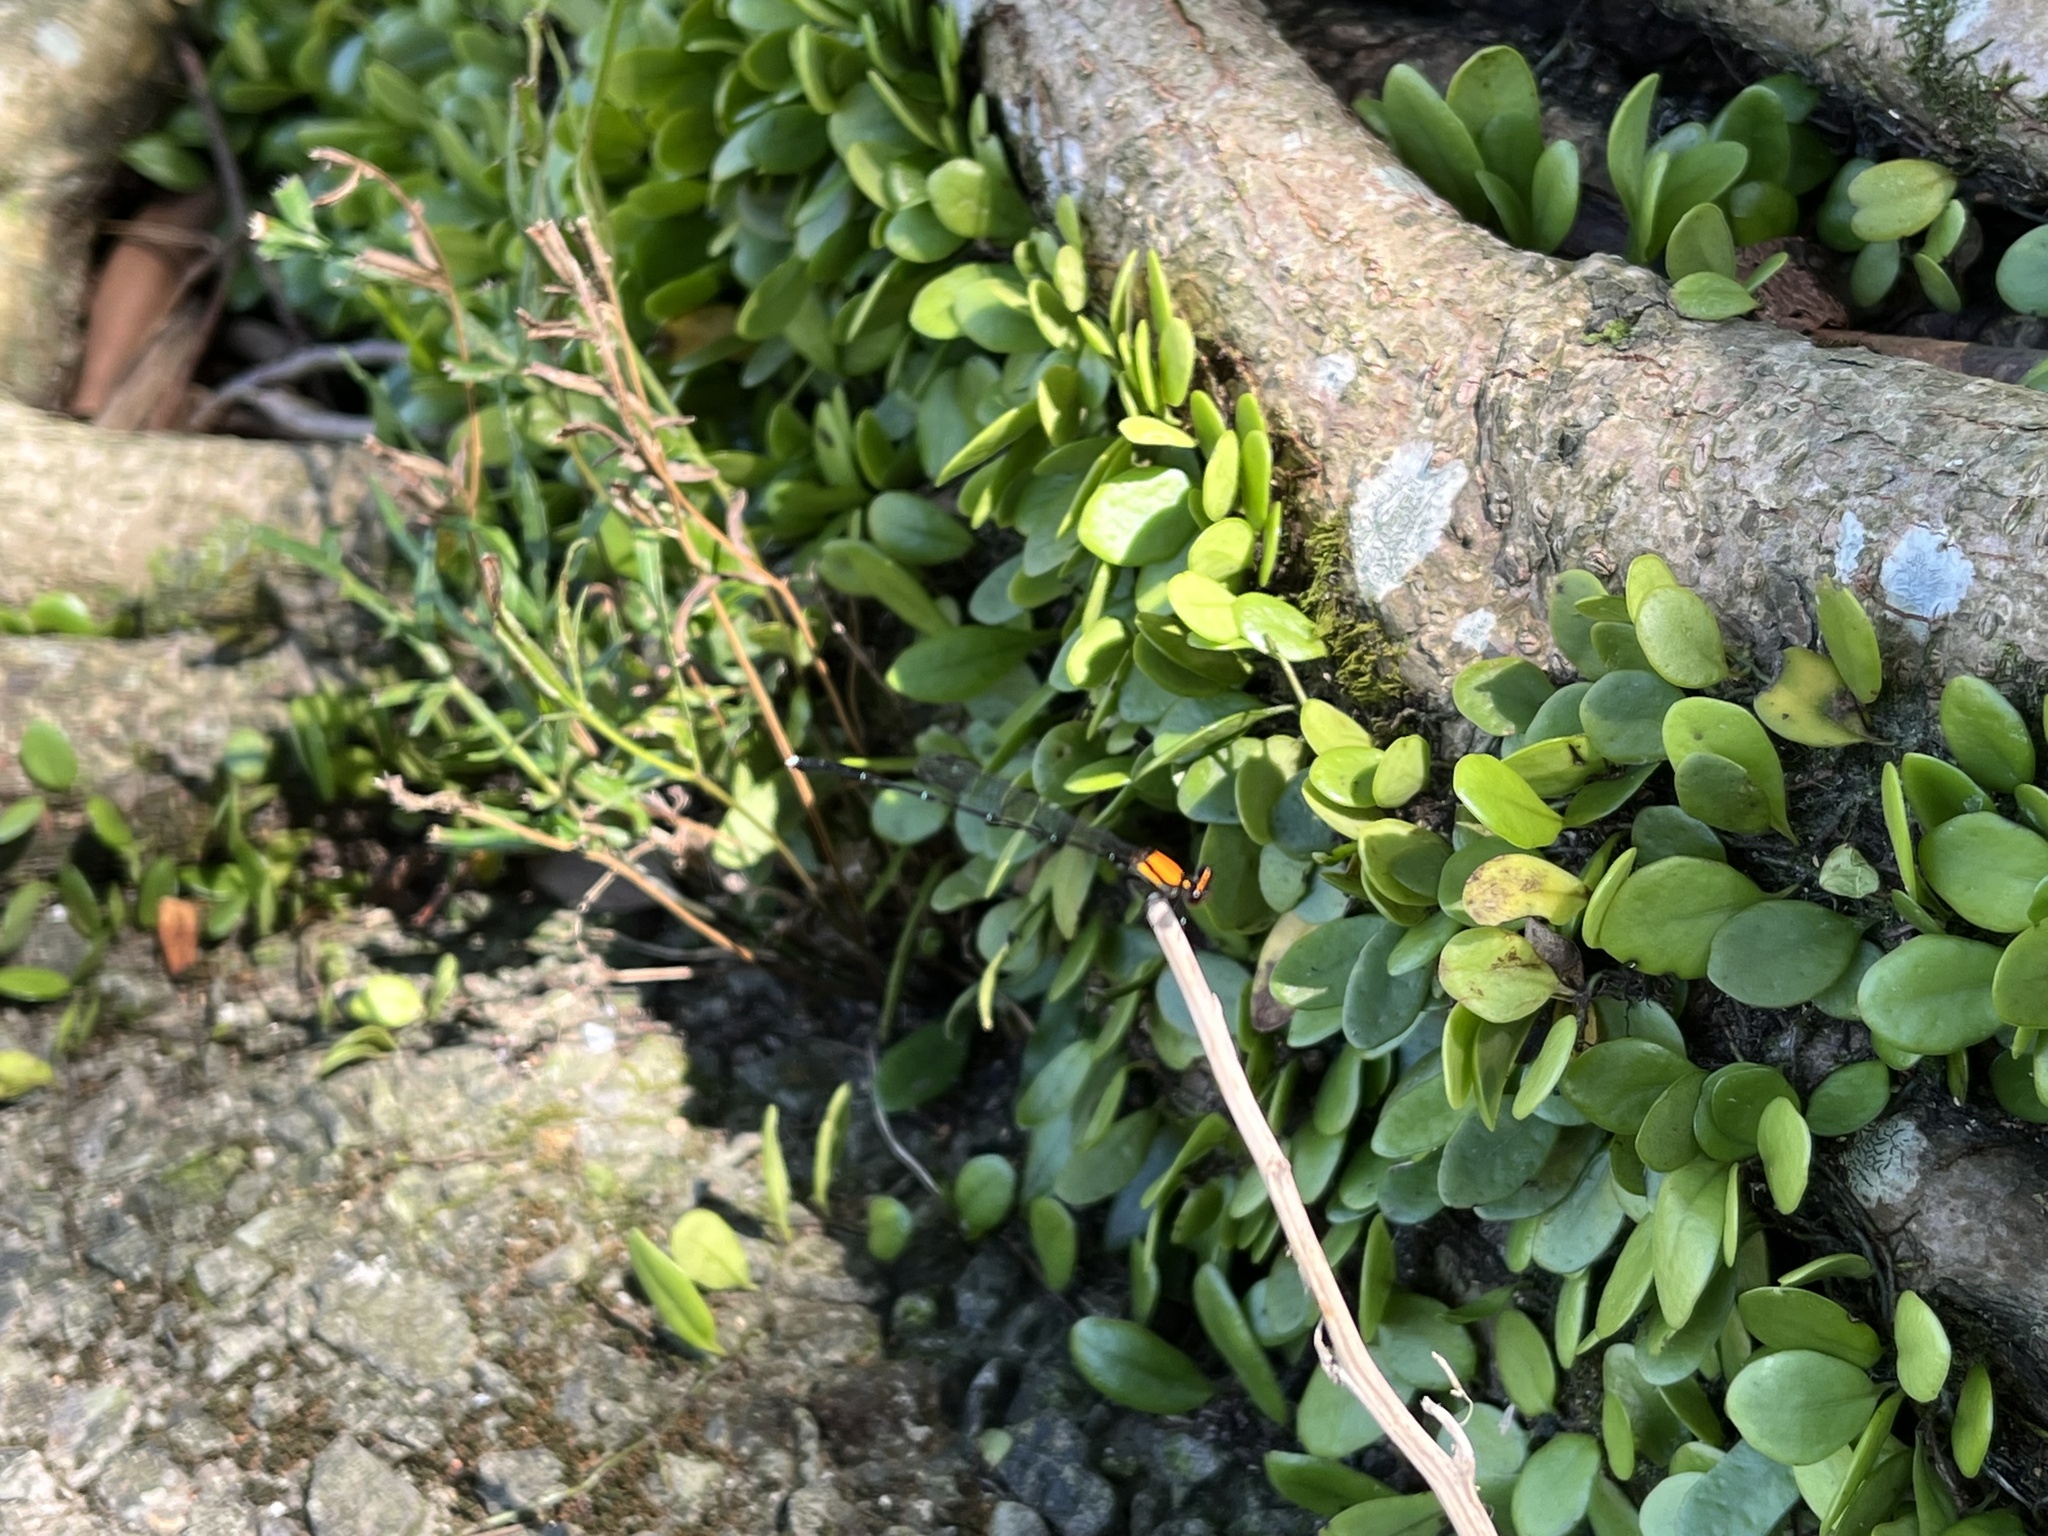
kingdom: Animalia
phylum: Arthropoda
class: Insecta
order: Odonata
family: Platycnemididae
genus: Prodasineura
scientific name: Prodasineura croconota
